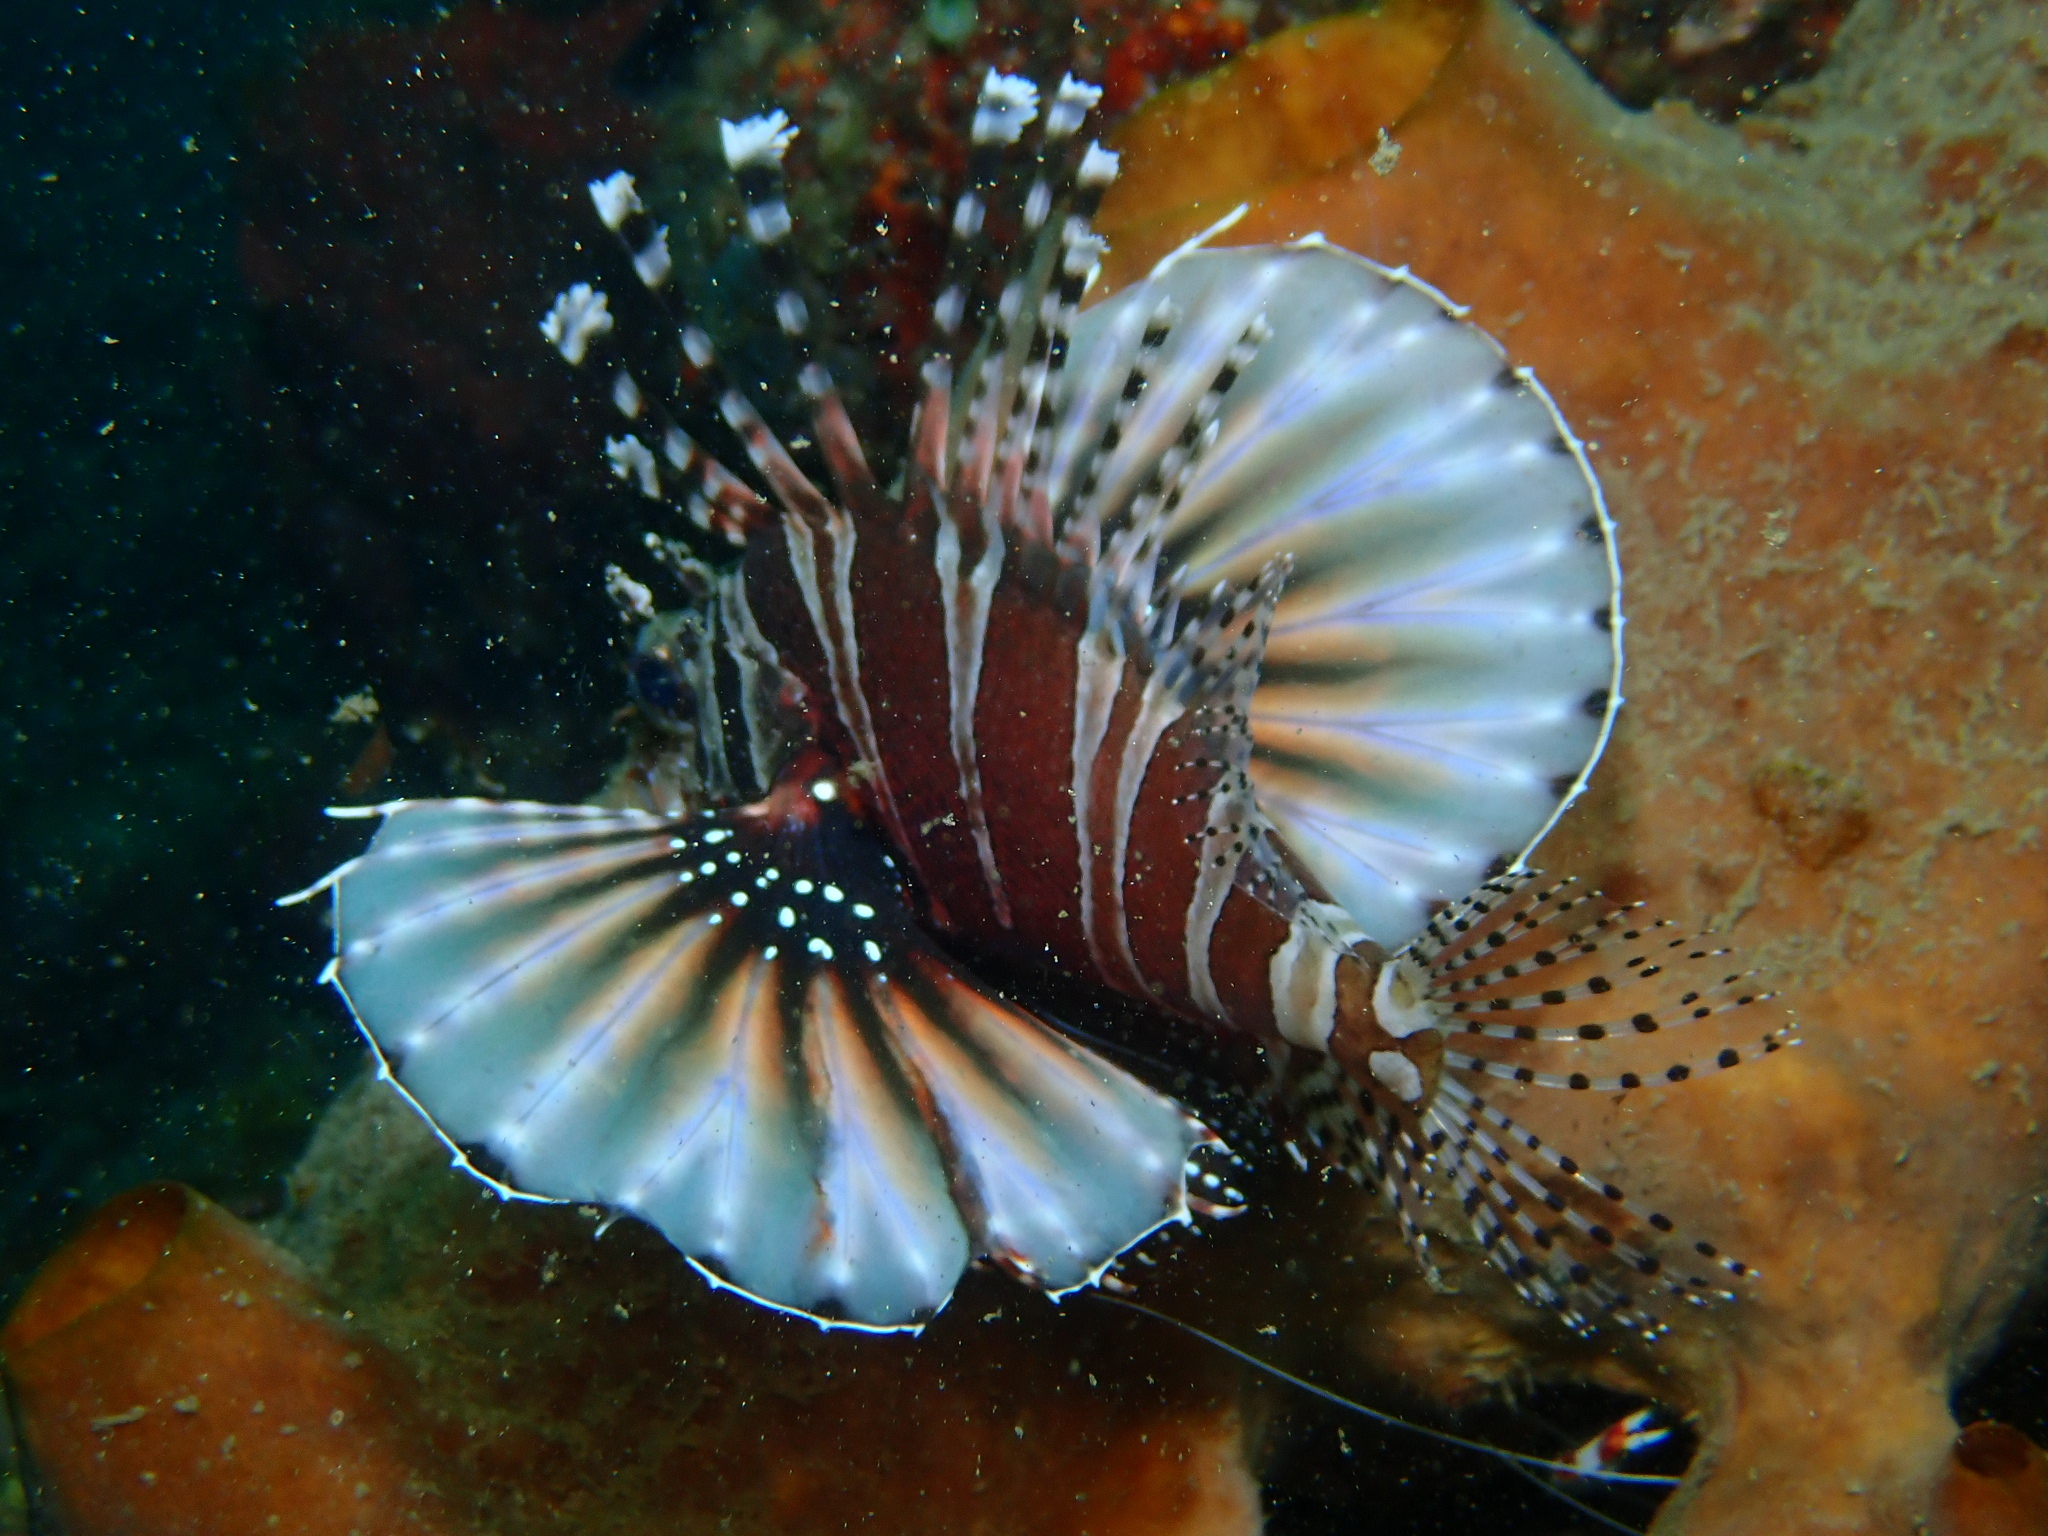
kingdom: Animalia
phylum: Chordata
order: Scorpaeniformes
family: Scorpaenidae
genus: Dendrochirus
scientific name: Dendrochirus zebra
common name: Zebra lionfish
